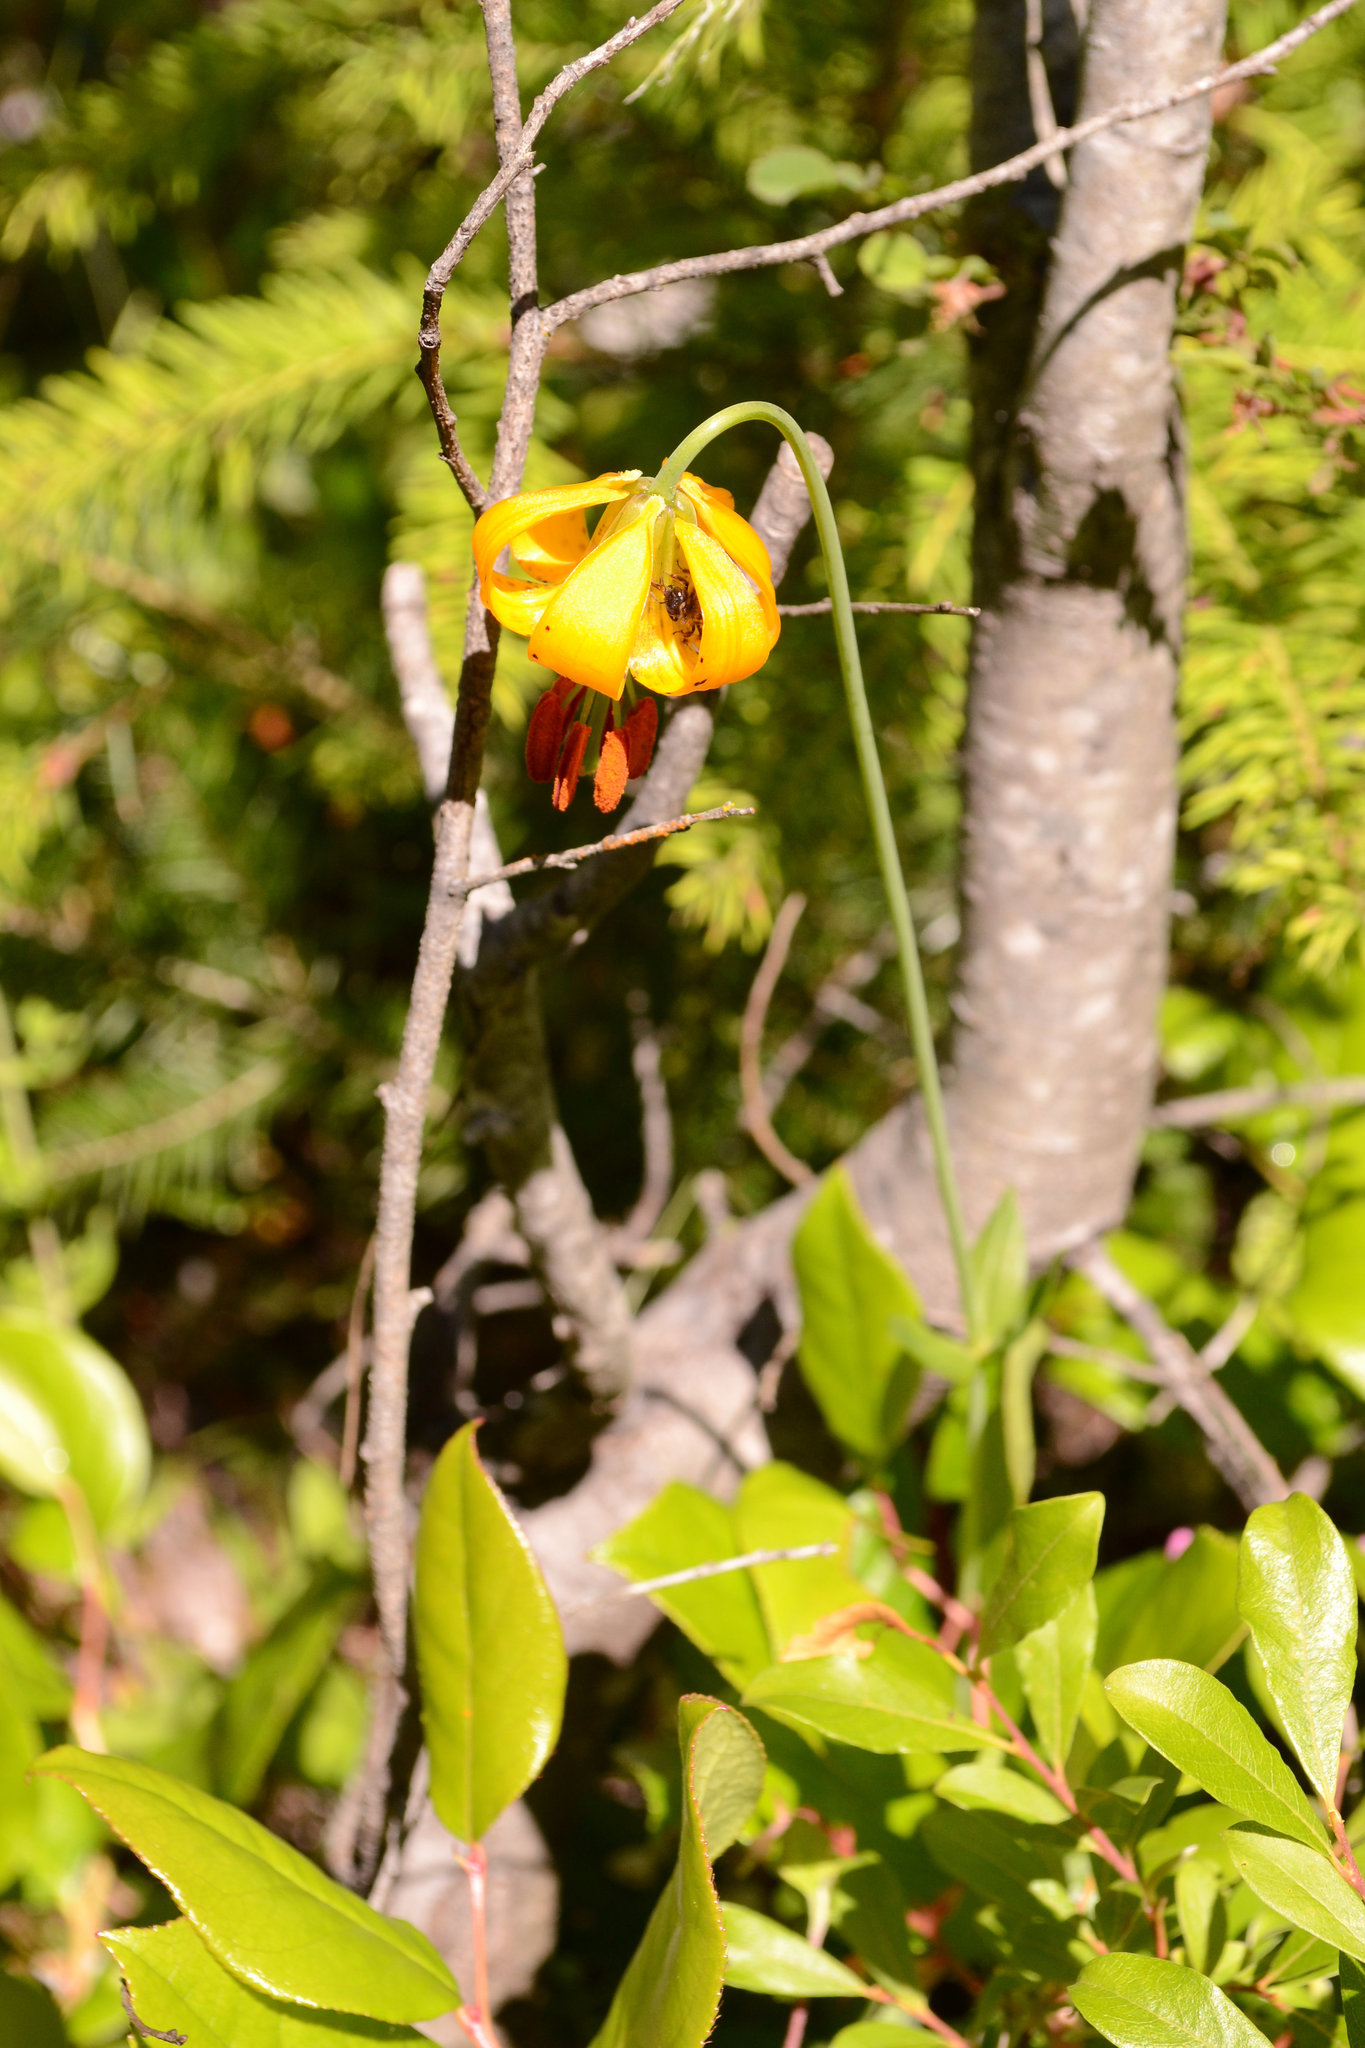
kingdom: Plantae
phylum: Tracheophyta
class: Liliopsida
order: Liliales
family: Liliaceae
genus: Lilium
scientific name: Lilium columbianum
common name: Columbia lily
